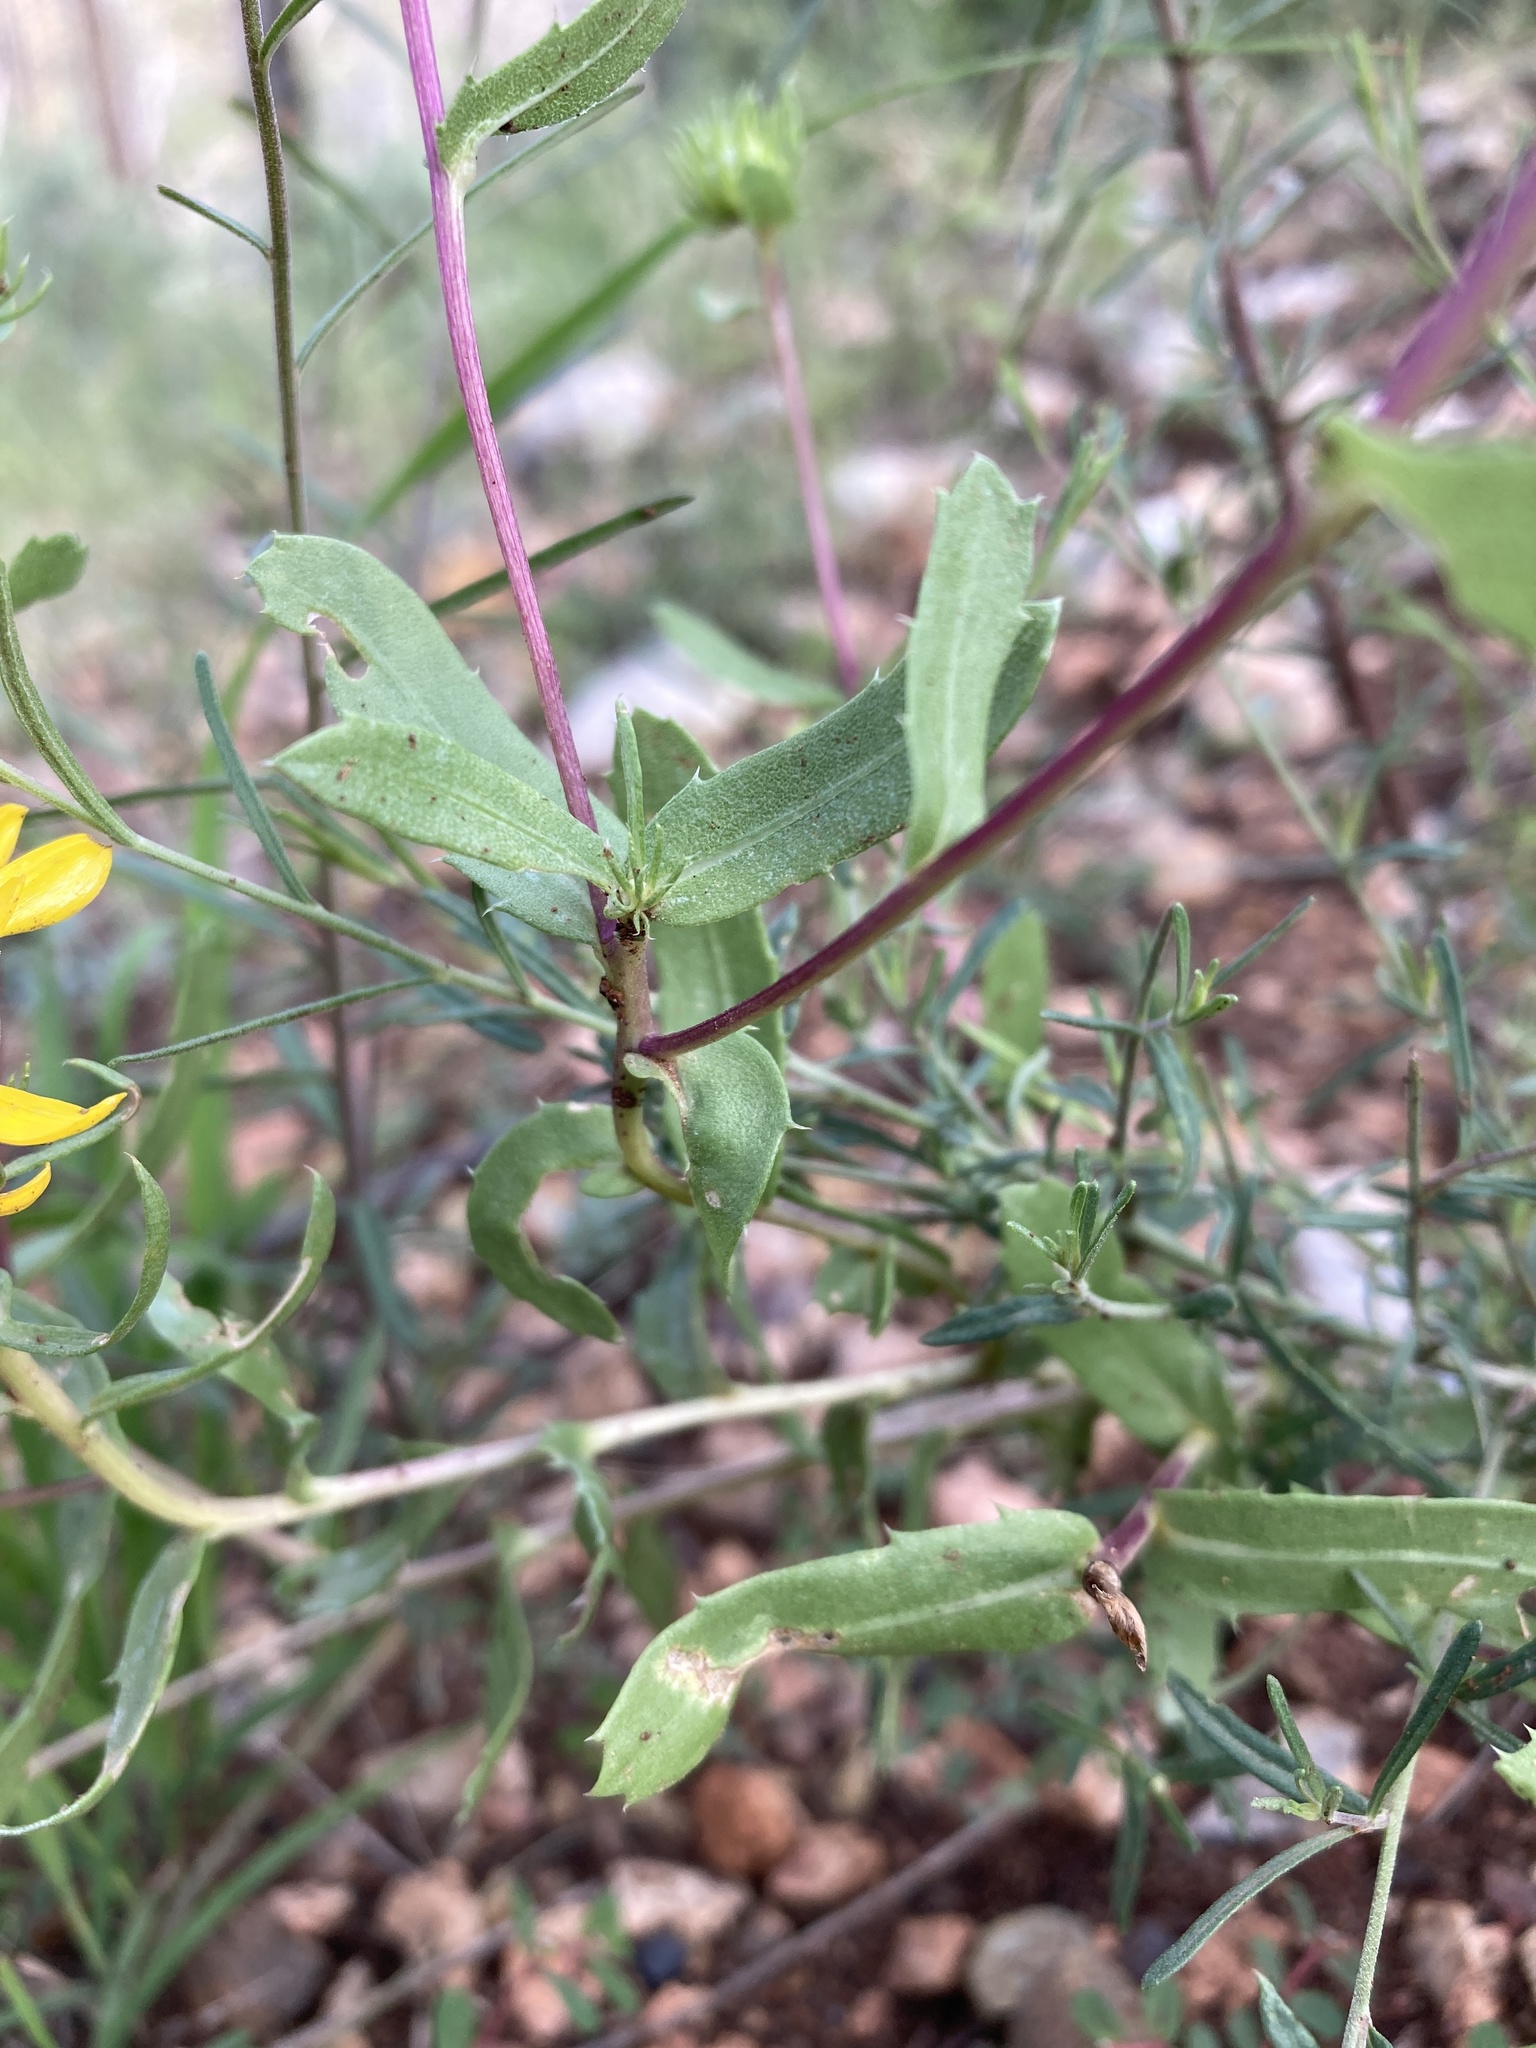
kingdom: Plantae
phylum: Tracheophyta
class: Magnoliopsida
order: Asterales
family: Asteraceae
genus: Grindelia
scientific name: Grindelia arizonica
